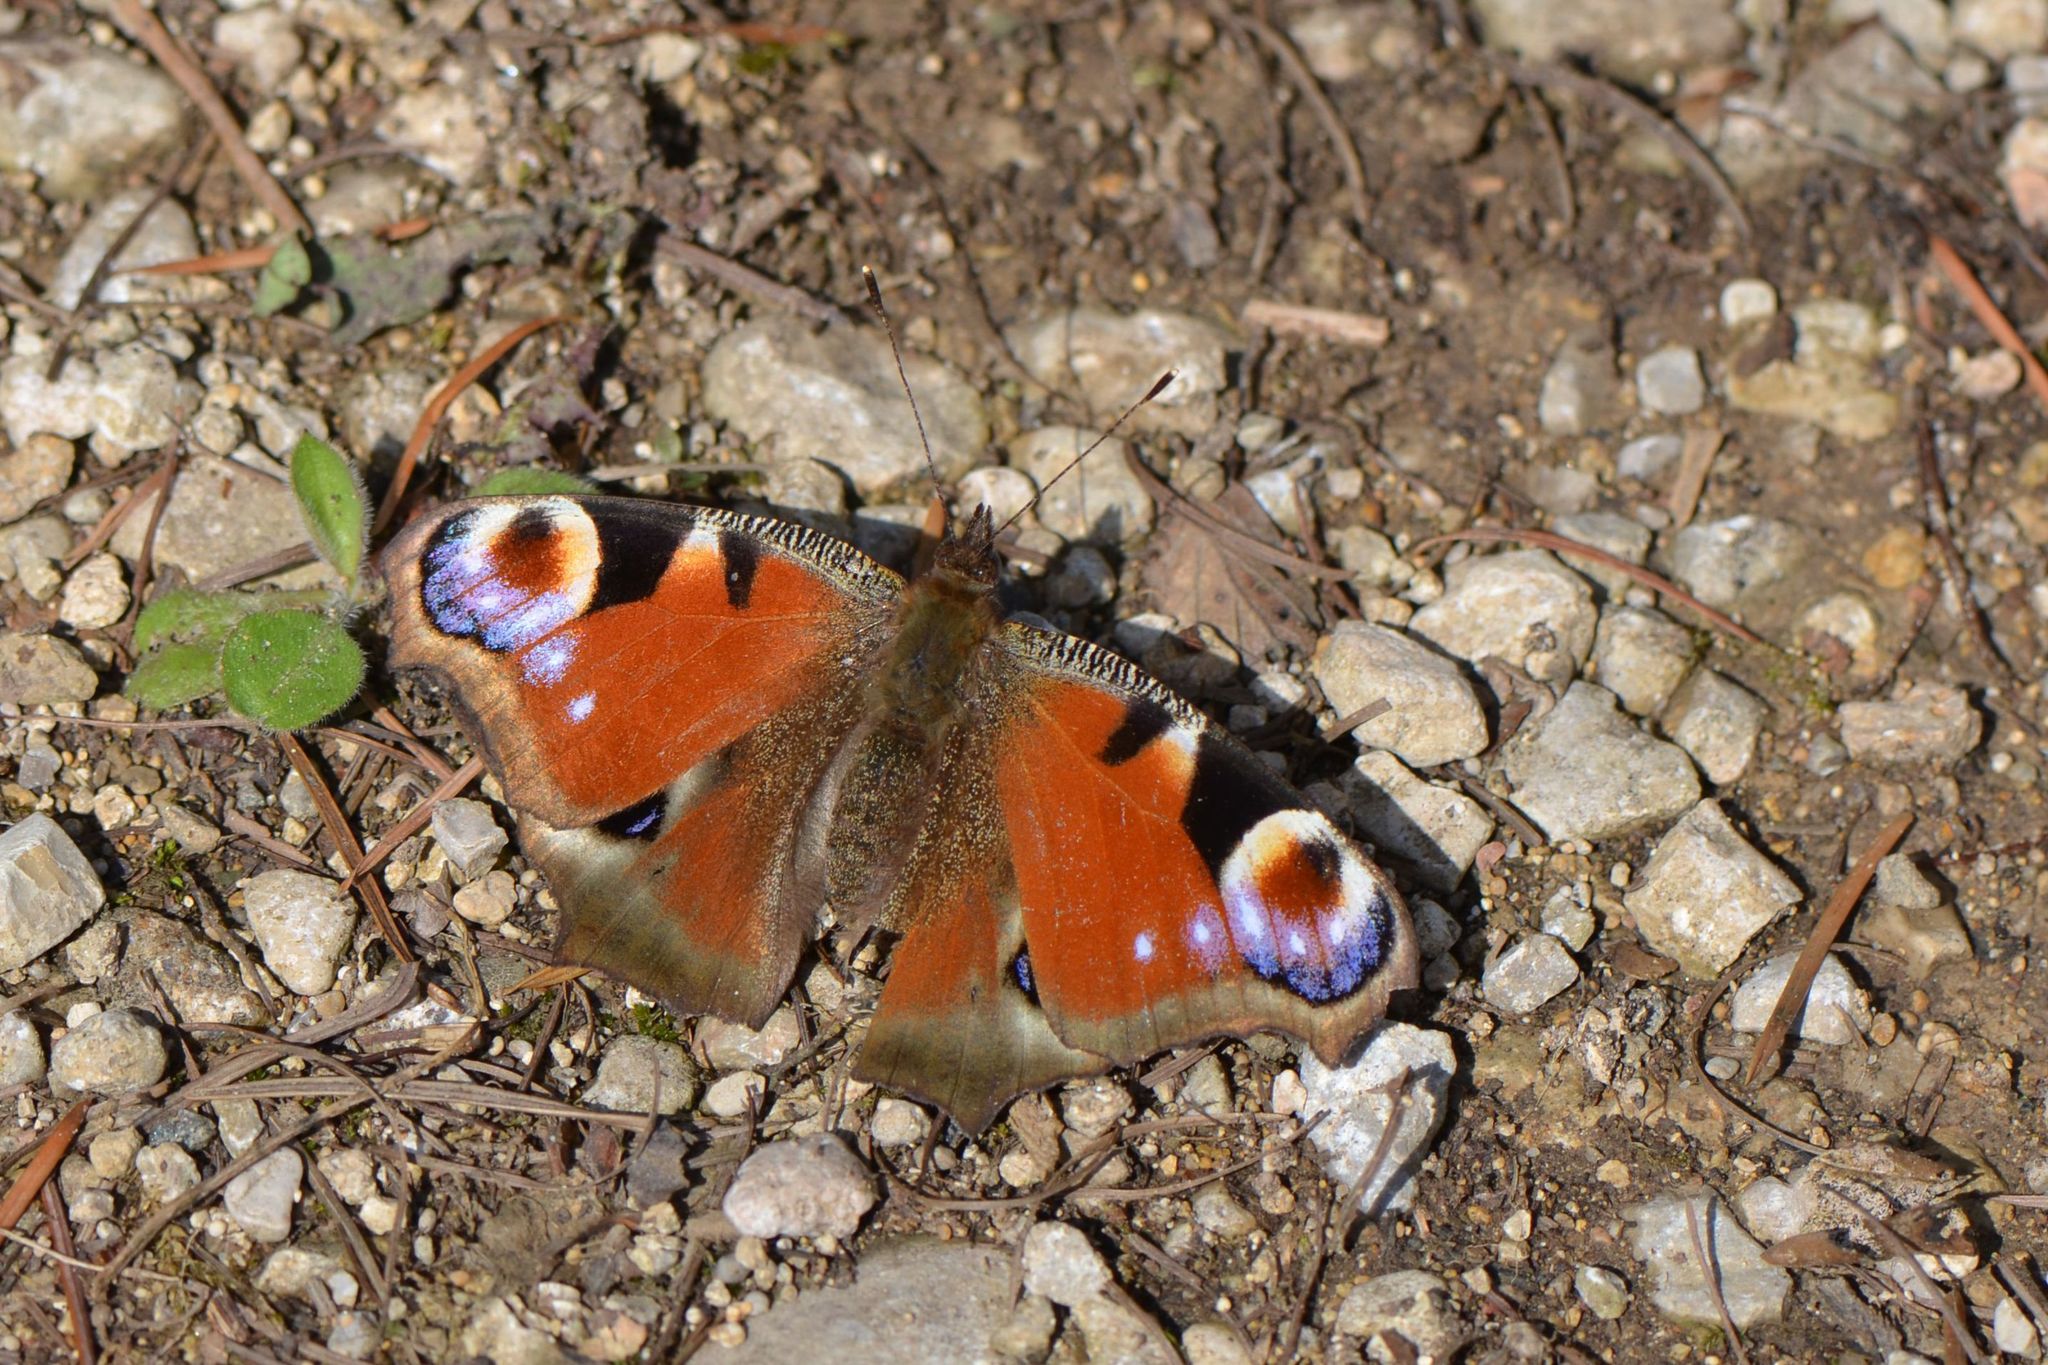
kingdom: Animalia
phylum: Arthropoda
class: Insecta
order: Lepidoptera
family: Nymphalidae
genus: Aglais
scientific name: Aglais io
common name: Peacock
